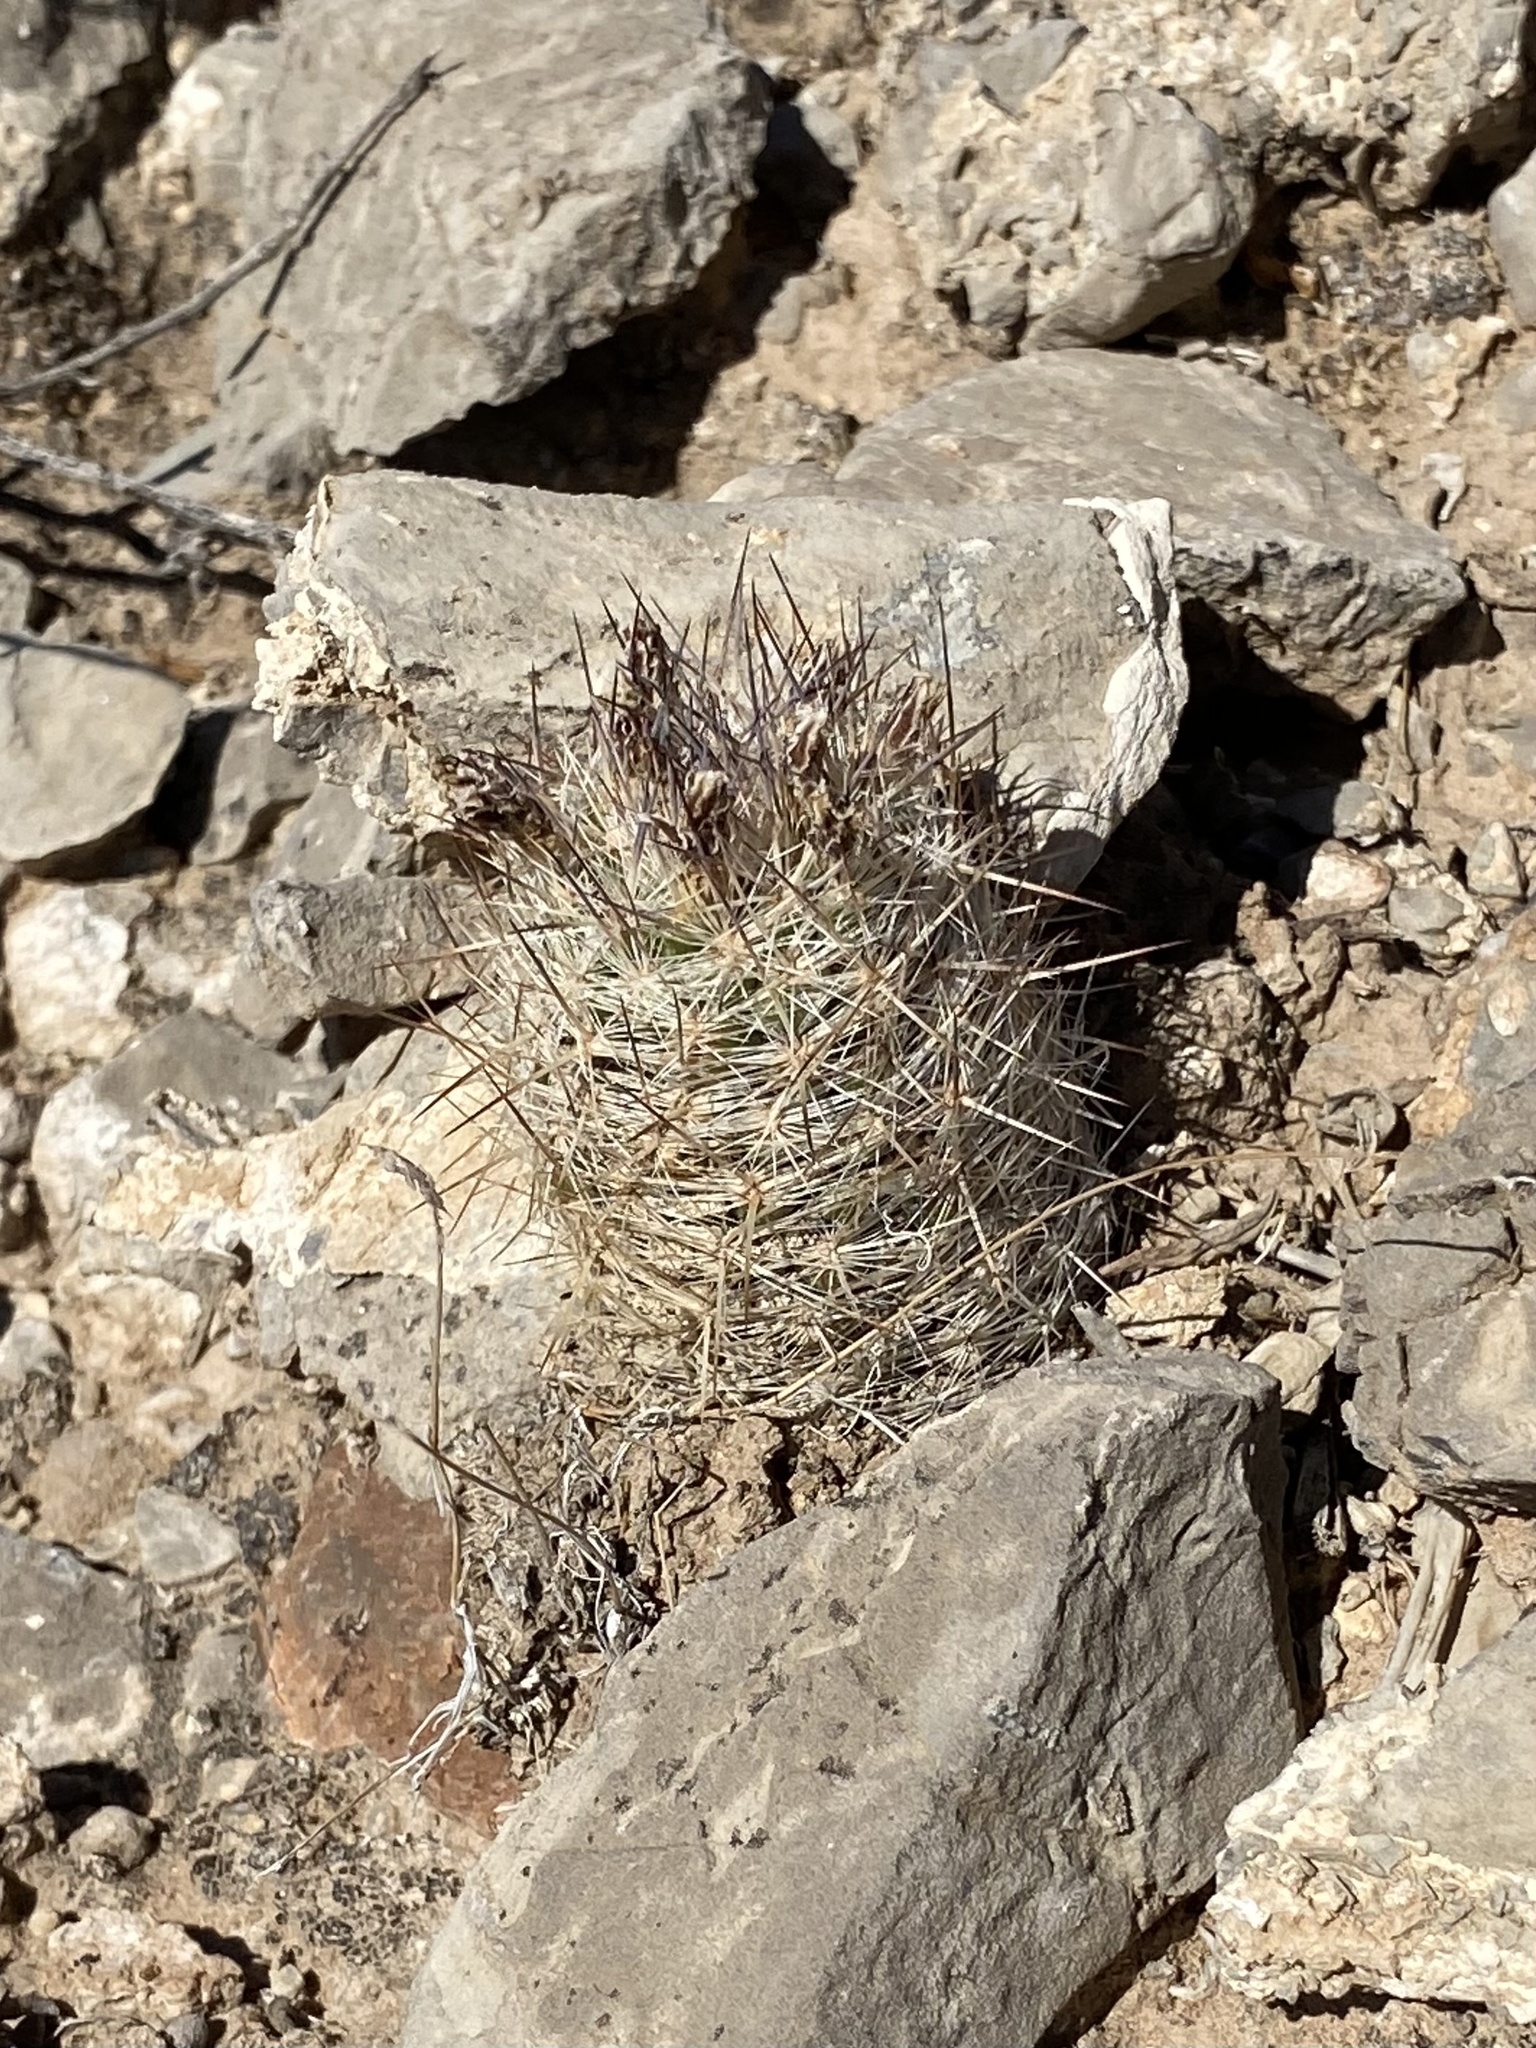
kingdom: Plantae
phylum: Tracheophyta
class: Magnoliopsida
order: Caryophyllales
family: Cactaceae
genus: Pelecyphora
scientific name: Pelecyphora tuberculosa
